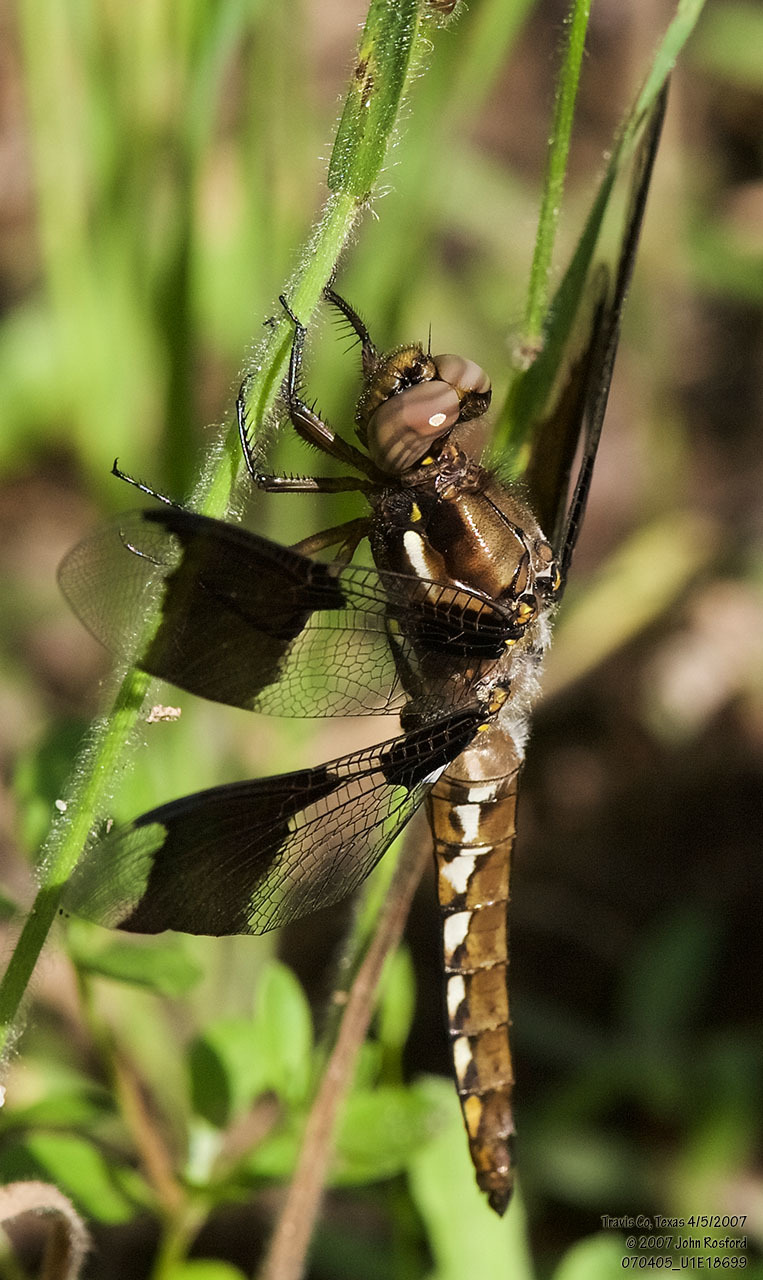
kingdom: Animalia
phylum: Arthropoda
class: Insecta
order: Odonata
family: Libellulidae
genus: Plathemis
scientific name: Plathemis lydia
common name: Common whitetail
